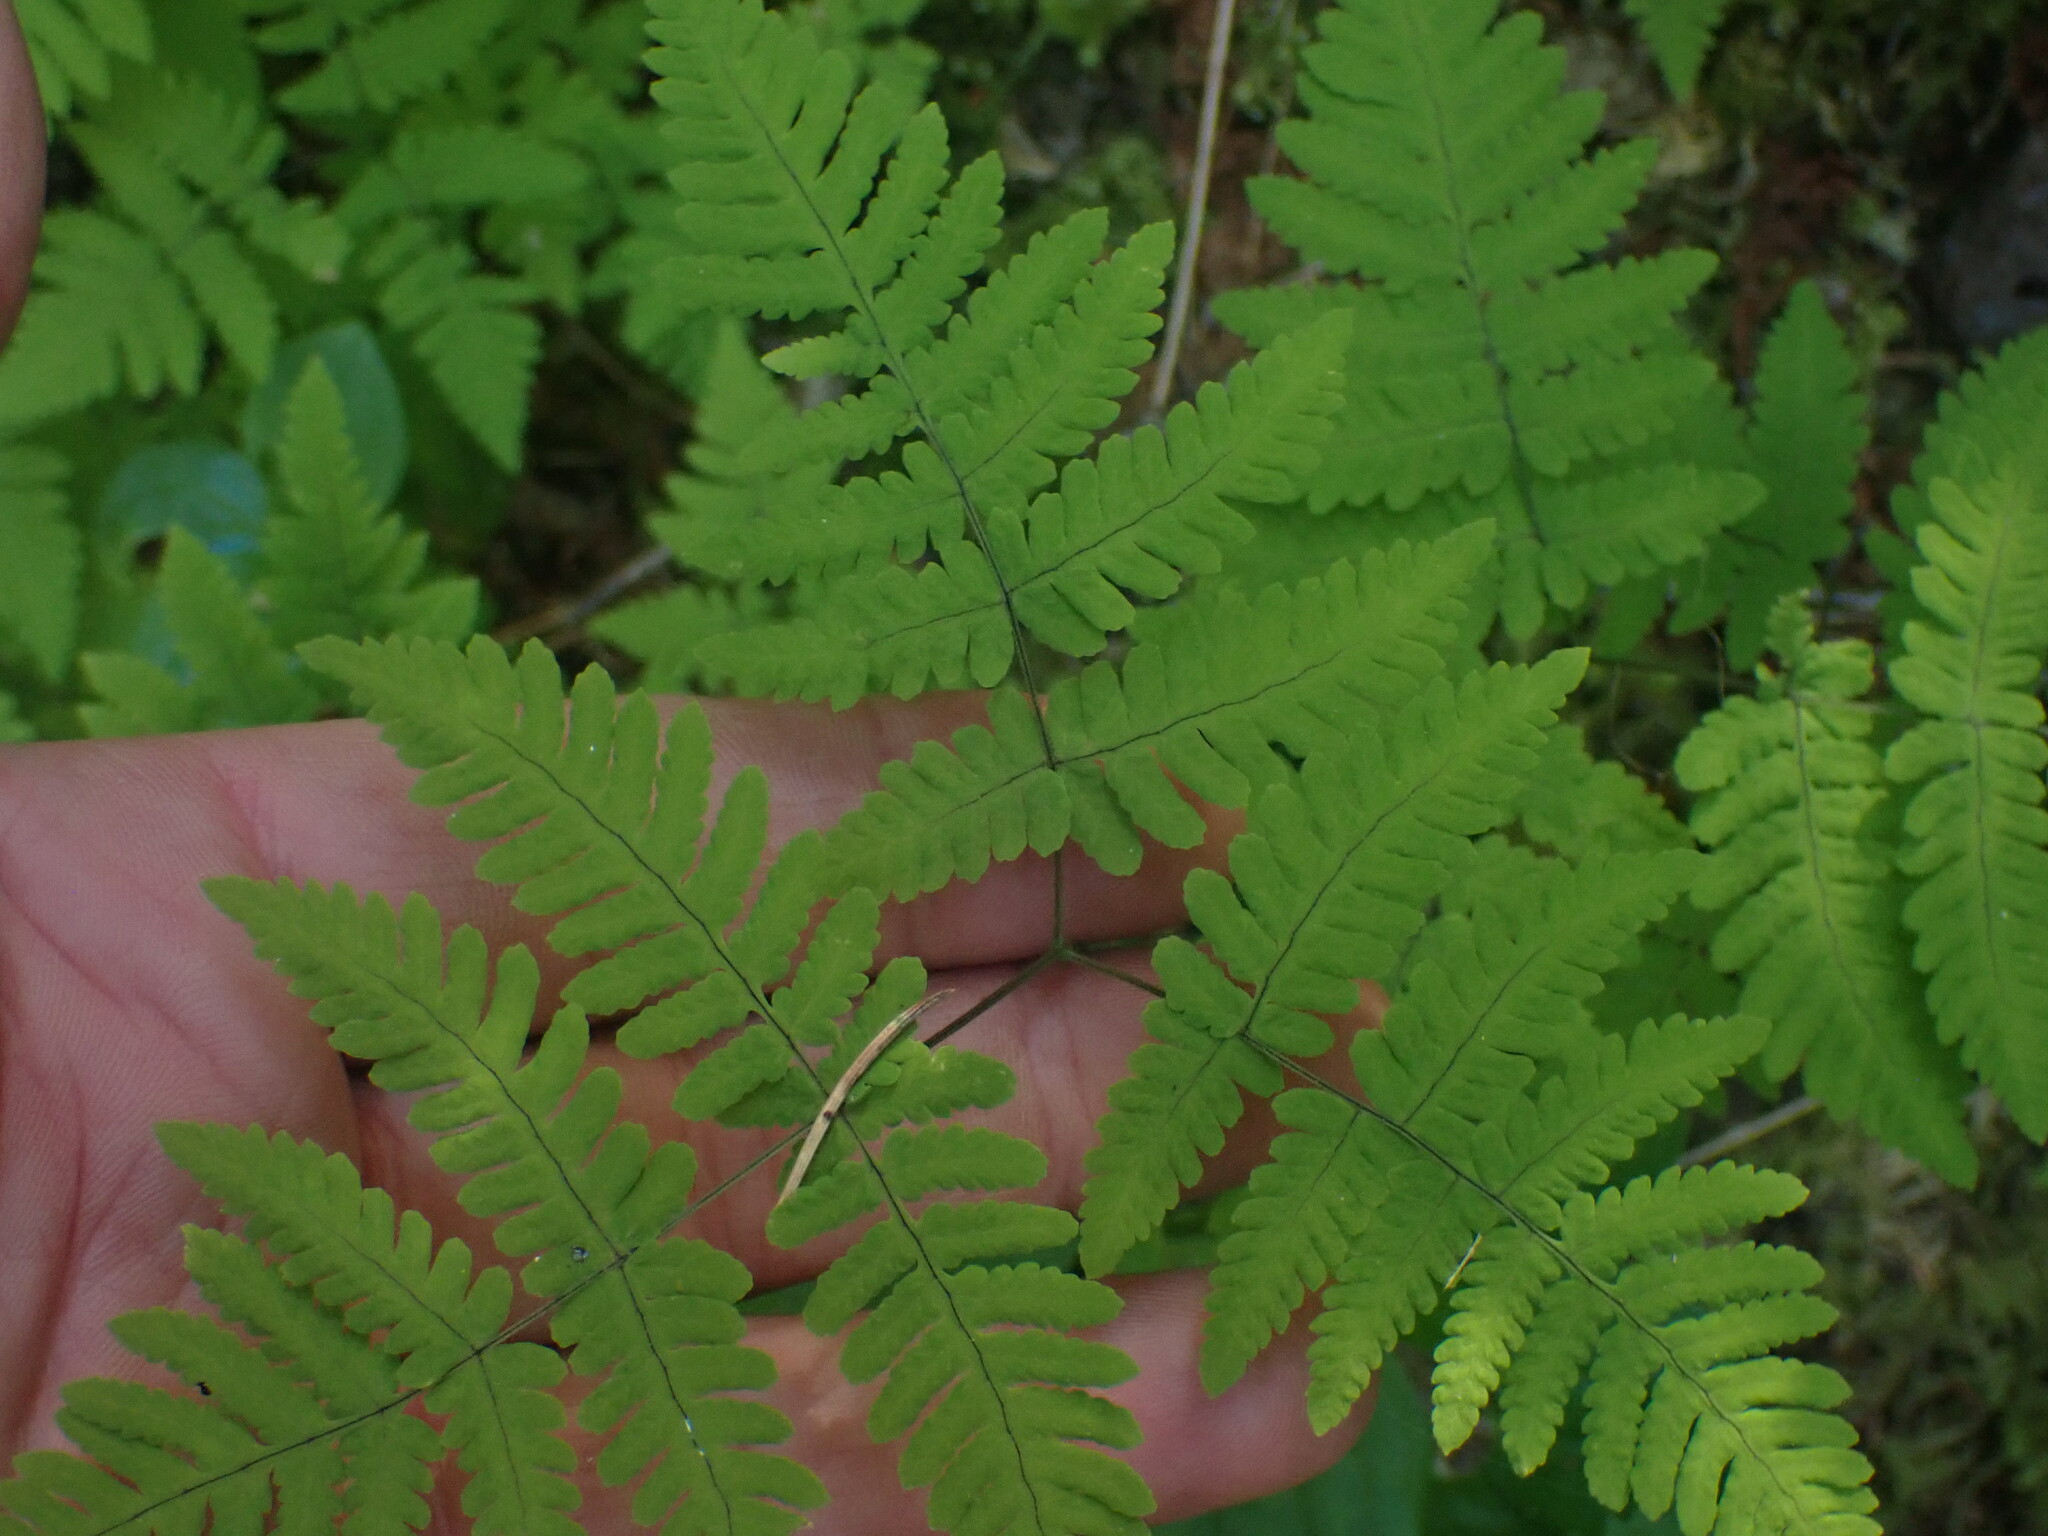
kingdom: Plantae
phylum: Tracheophyta
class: Polypodiopsida
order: Polypodiales
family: Cystopteridaceae
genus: Gymnocarpium
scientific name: Gymnocarpium disjunctum
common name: Western oak fern
